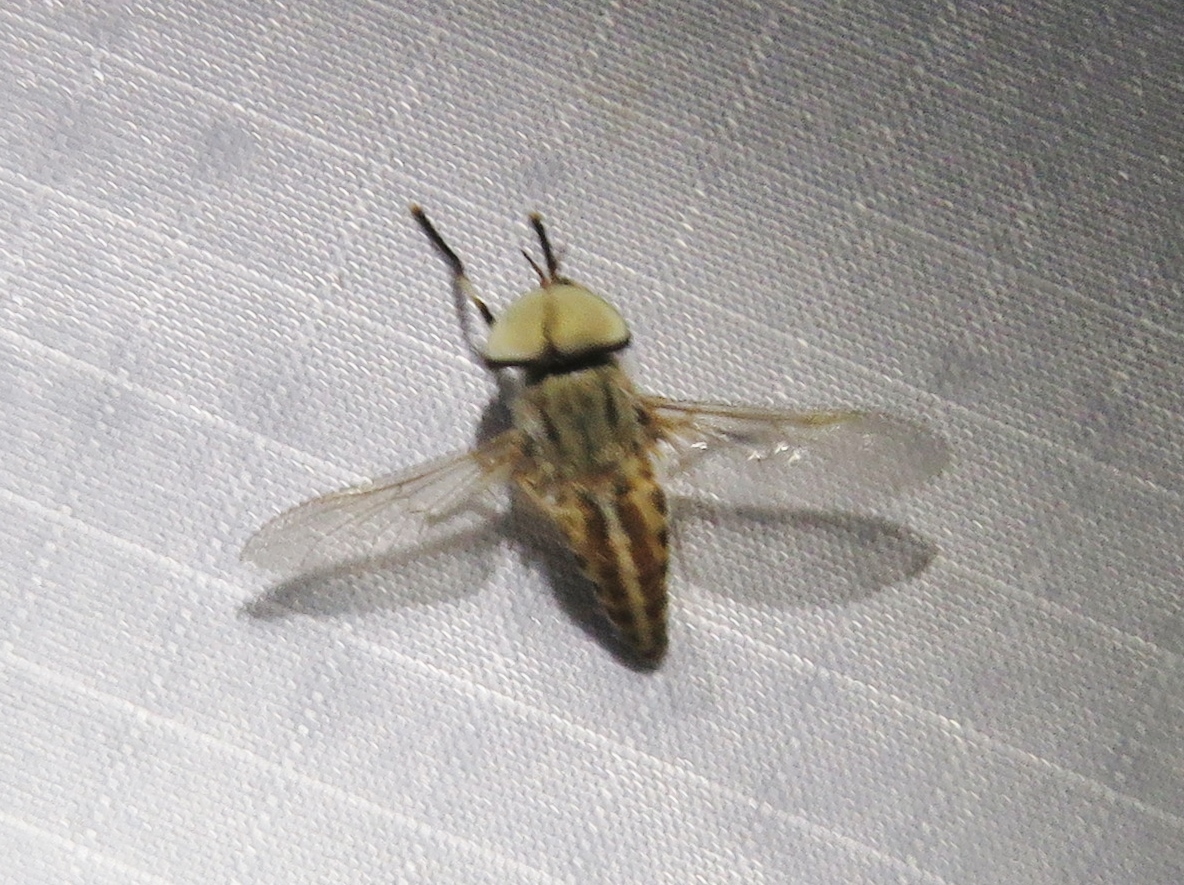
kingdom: Animalia
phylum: Arthropoda
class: Insecta
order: Diptera
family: Tabanidae
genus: Tabanus
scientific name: Tabanus lineola
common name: Striped horse fly
